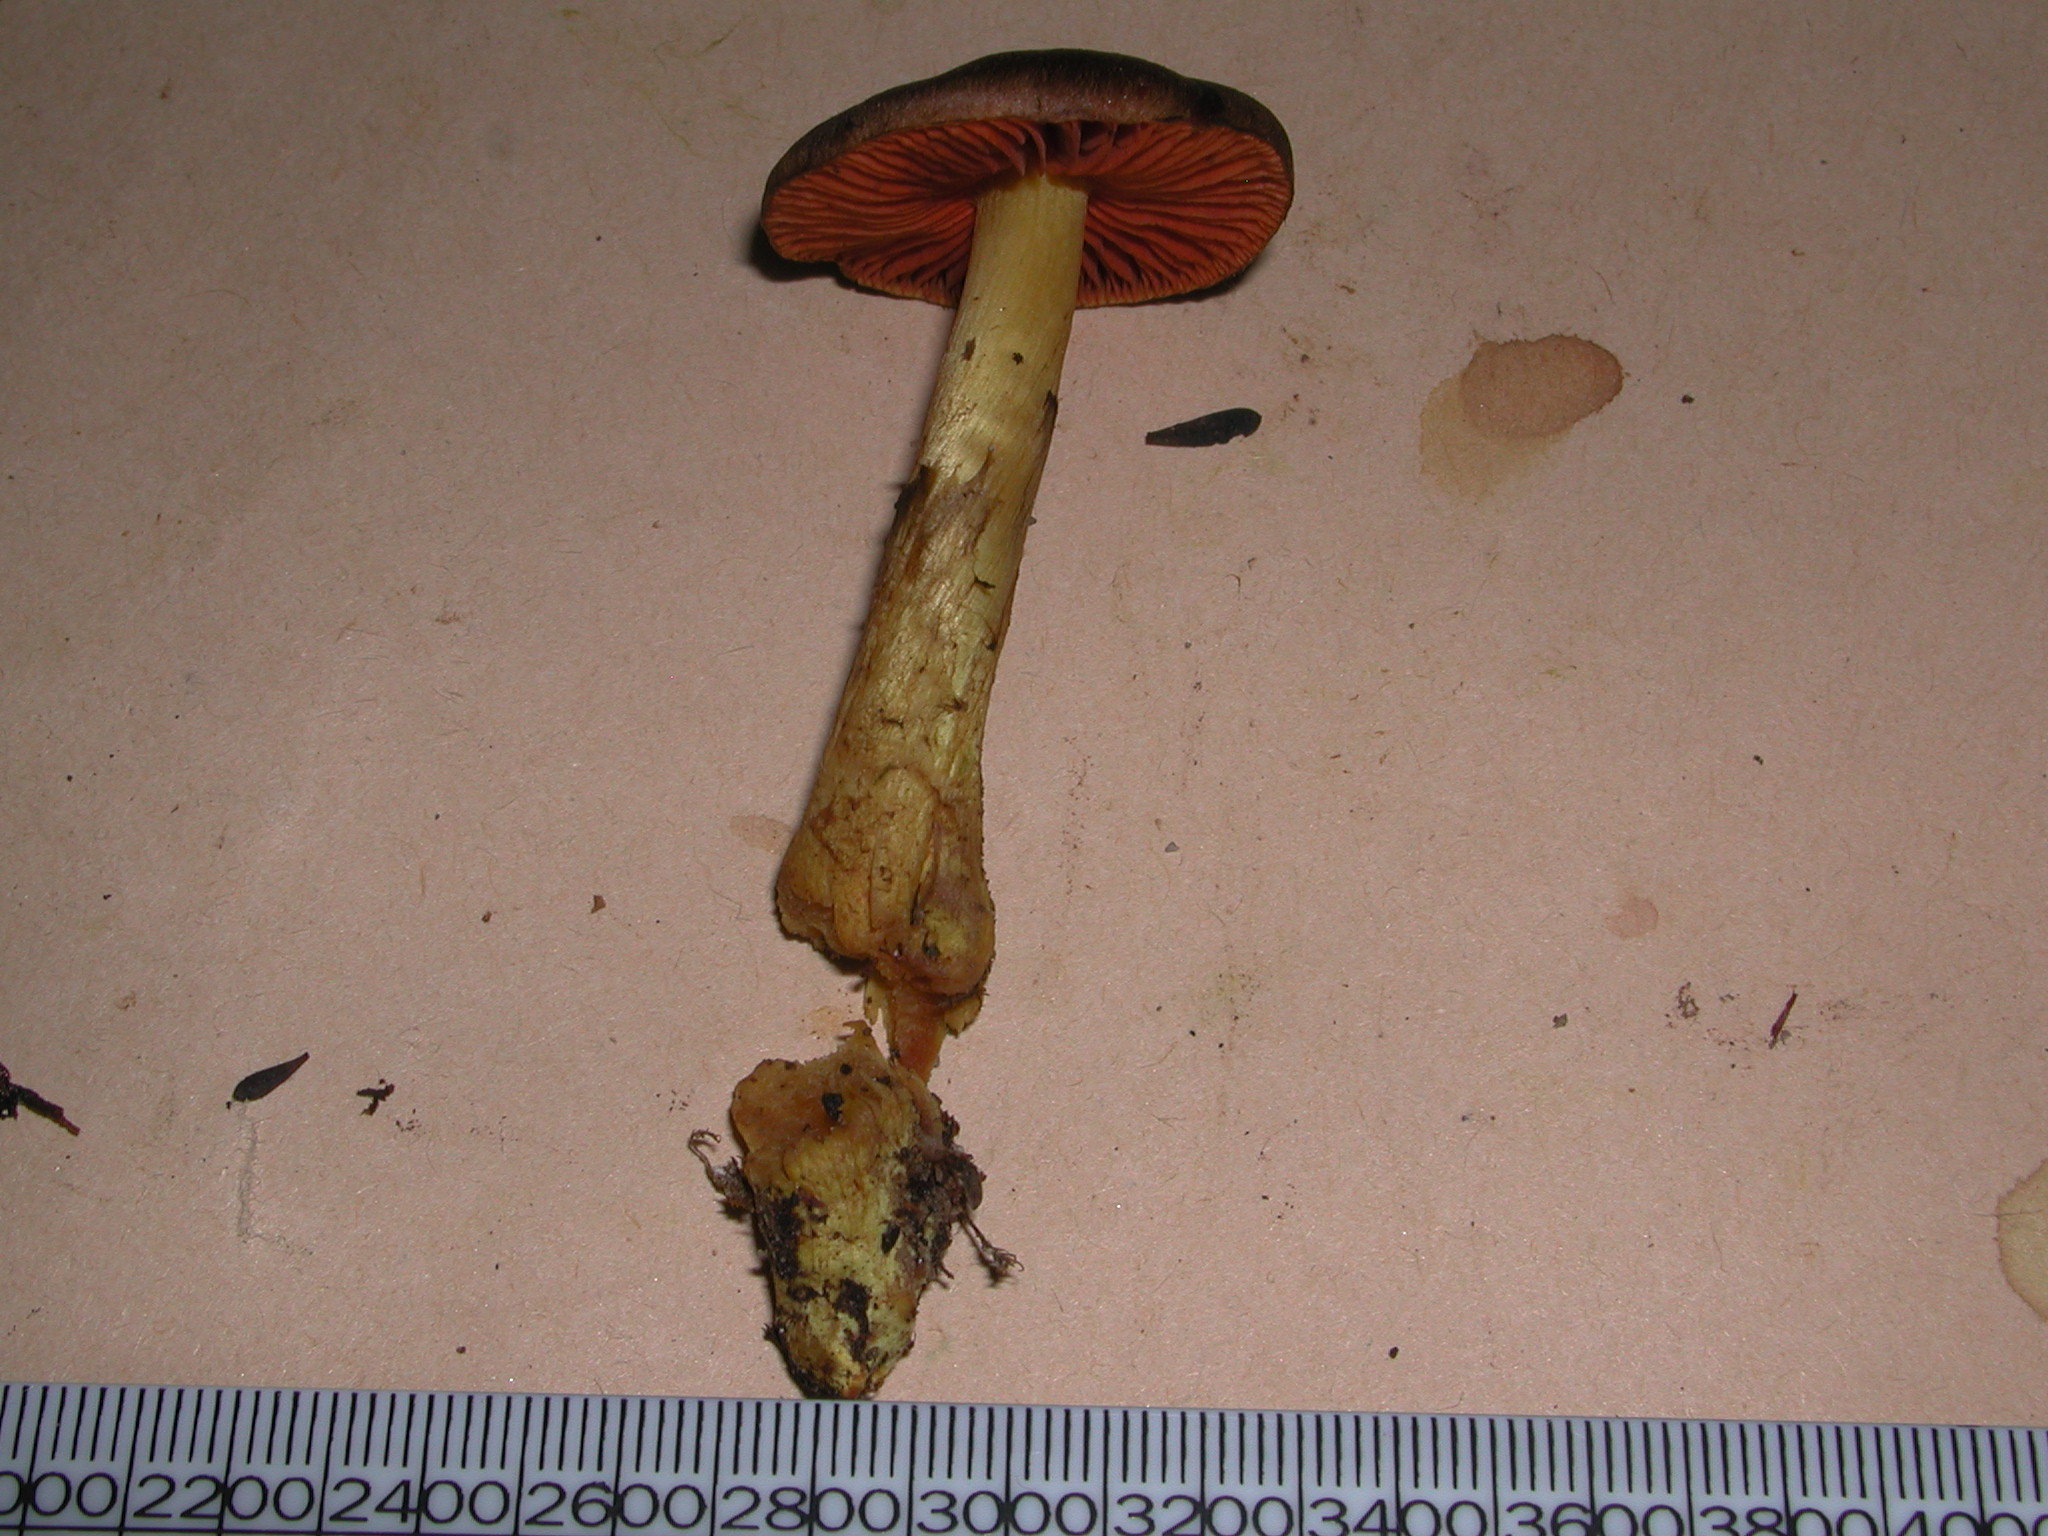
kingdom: Fungi
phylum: Basidiomycota
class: Agaricomycetes
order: Agaricales
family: Cortinariaceae
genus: Cortinarius
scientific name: Cortinarius persplendidus
